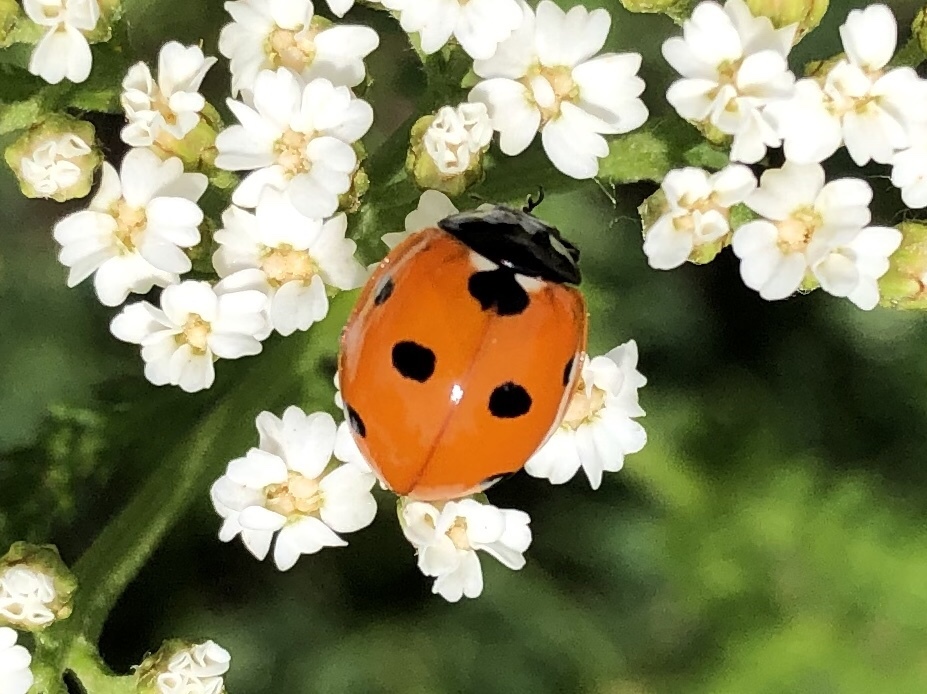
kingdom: Animalia
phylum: Arthropoda
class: Insecta
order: Coleoptera
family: Coccinellidae
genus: Coccinella
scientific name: Coccinella septempunctata
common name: Sevenspotted lady beetle
